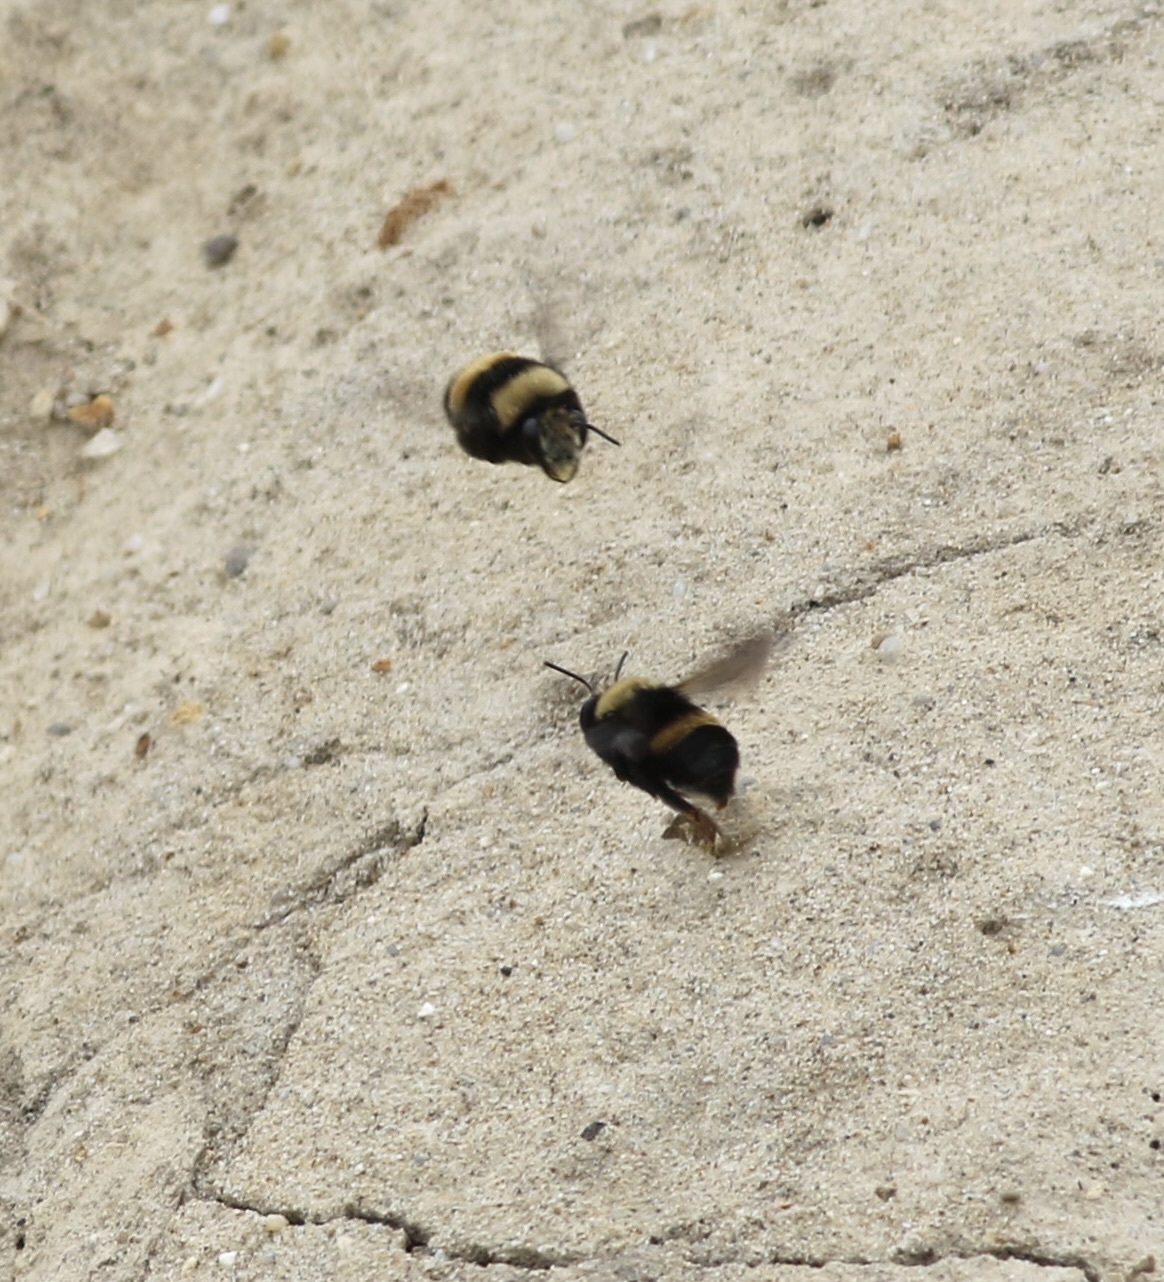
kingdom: Animalia
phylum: Arthropoda
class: Insecta
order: Hymenoptera
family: Apidae
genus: Anthophora
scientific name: Anthophora bomboides
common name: Bumble-bee-mimic digger bee
